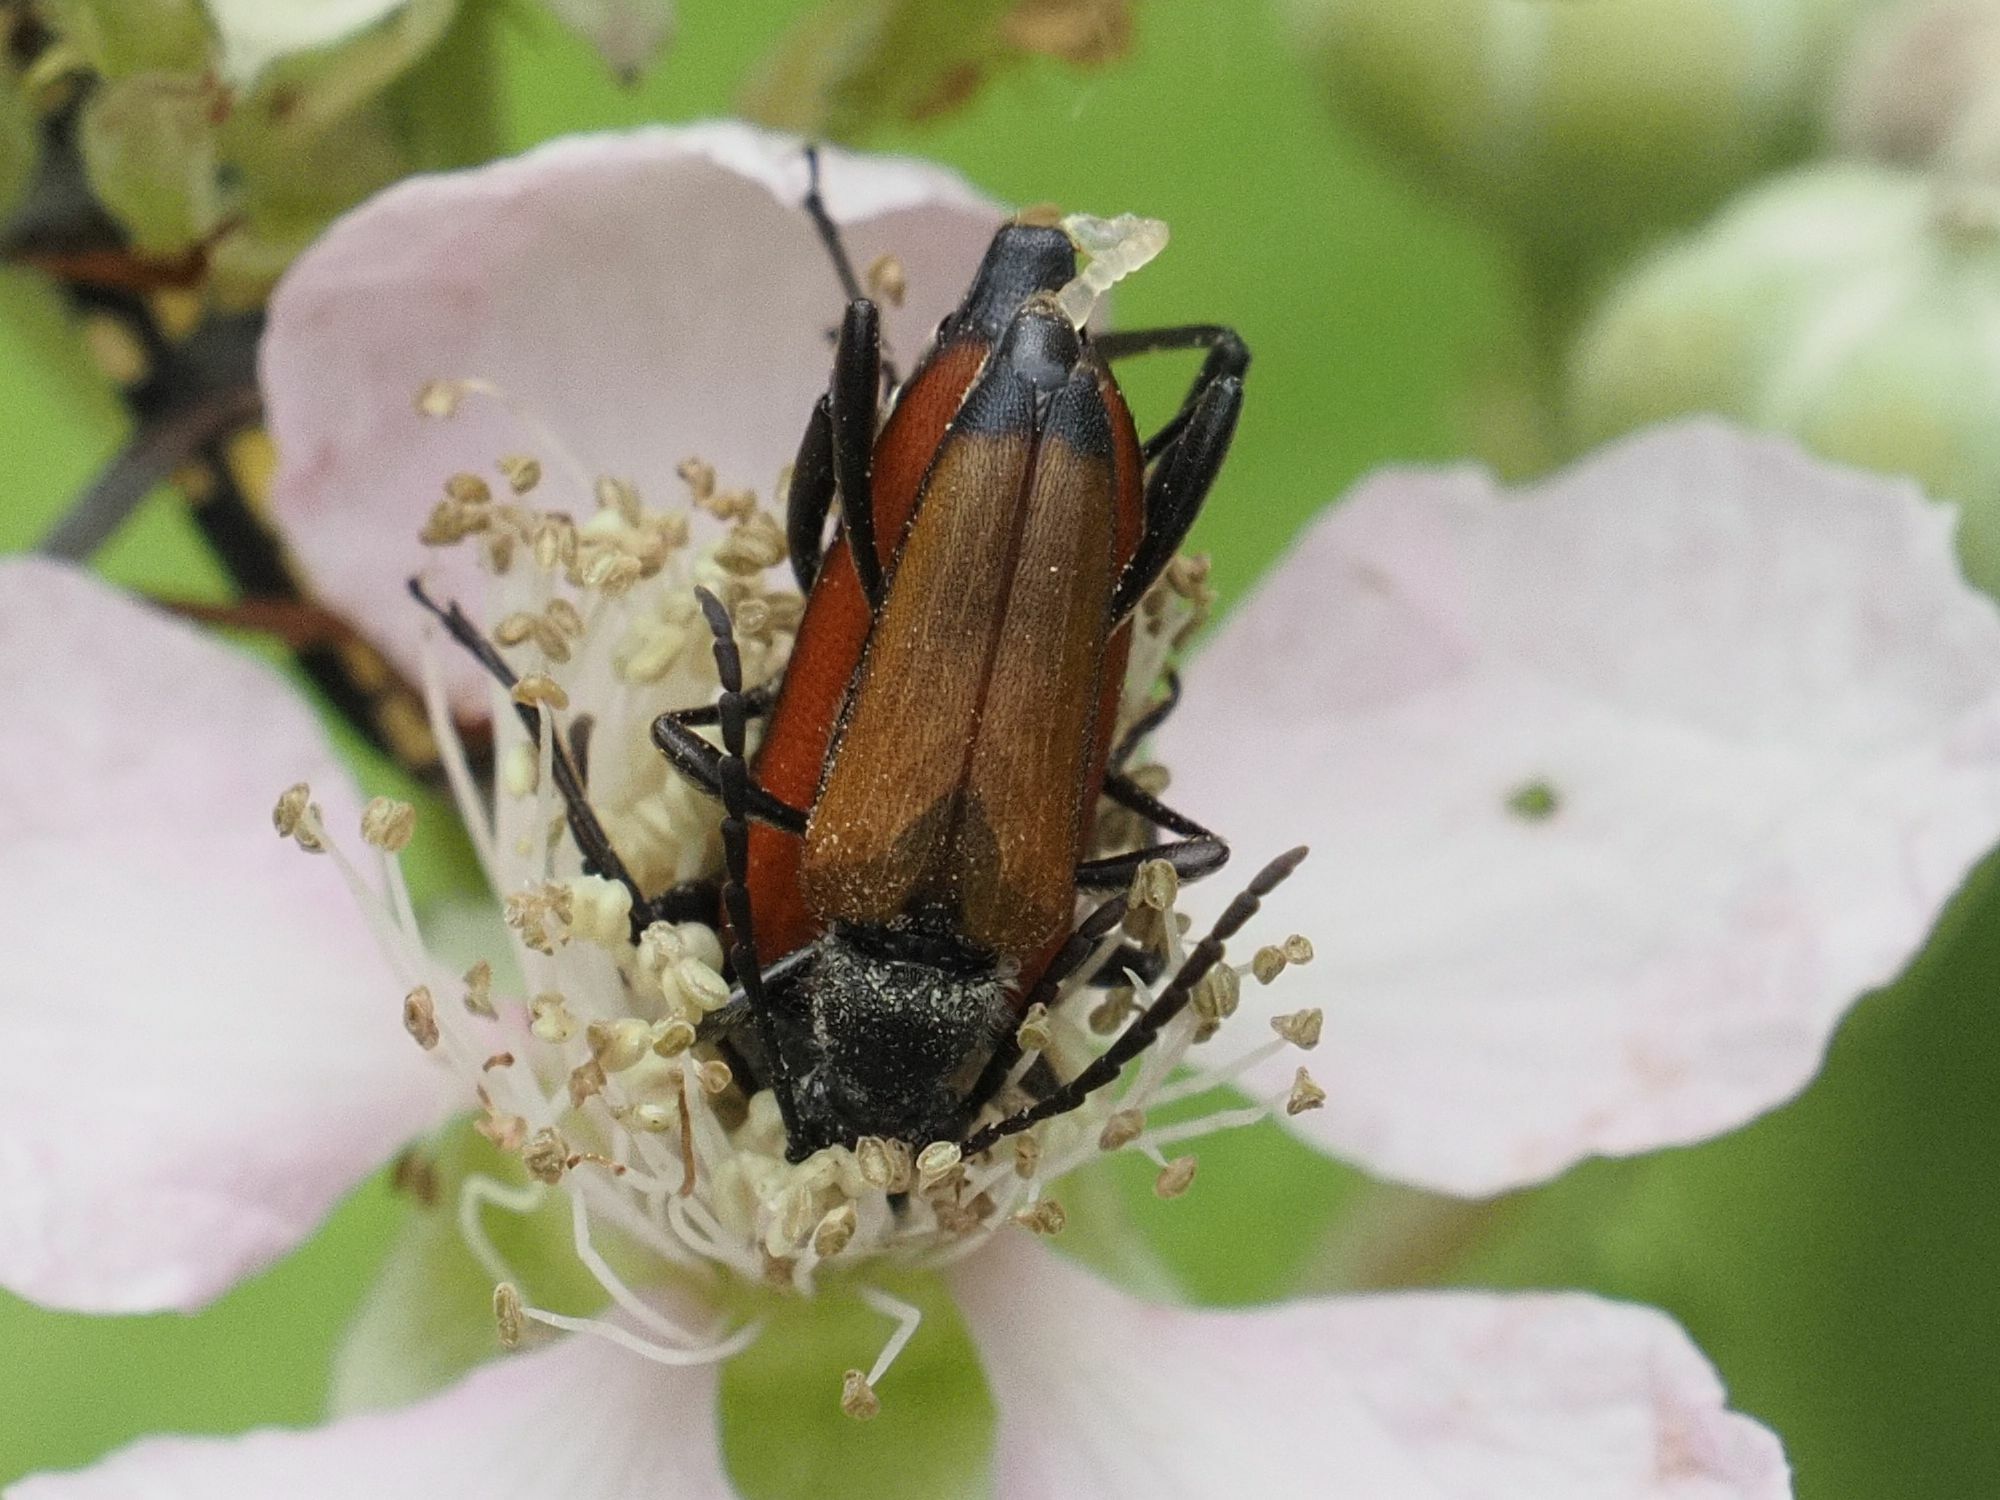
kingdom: Animalia
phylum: Arthropoda
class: Insecta
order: Coleoptera
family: Cerambycidae
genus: Anastrangalia
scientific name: Anastrangalia sanguinolenta
